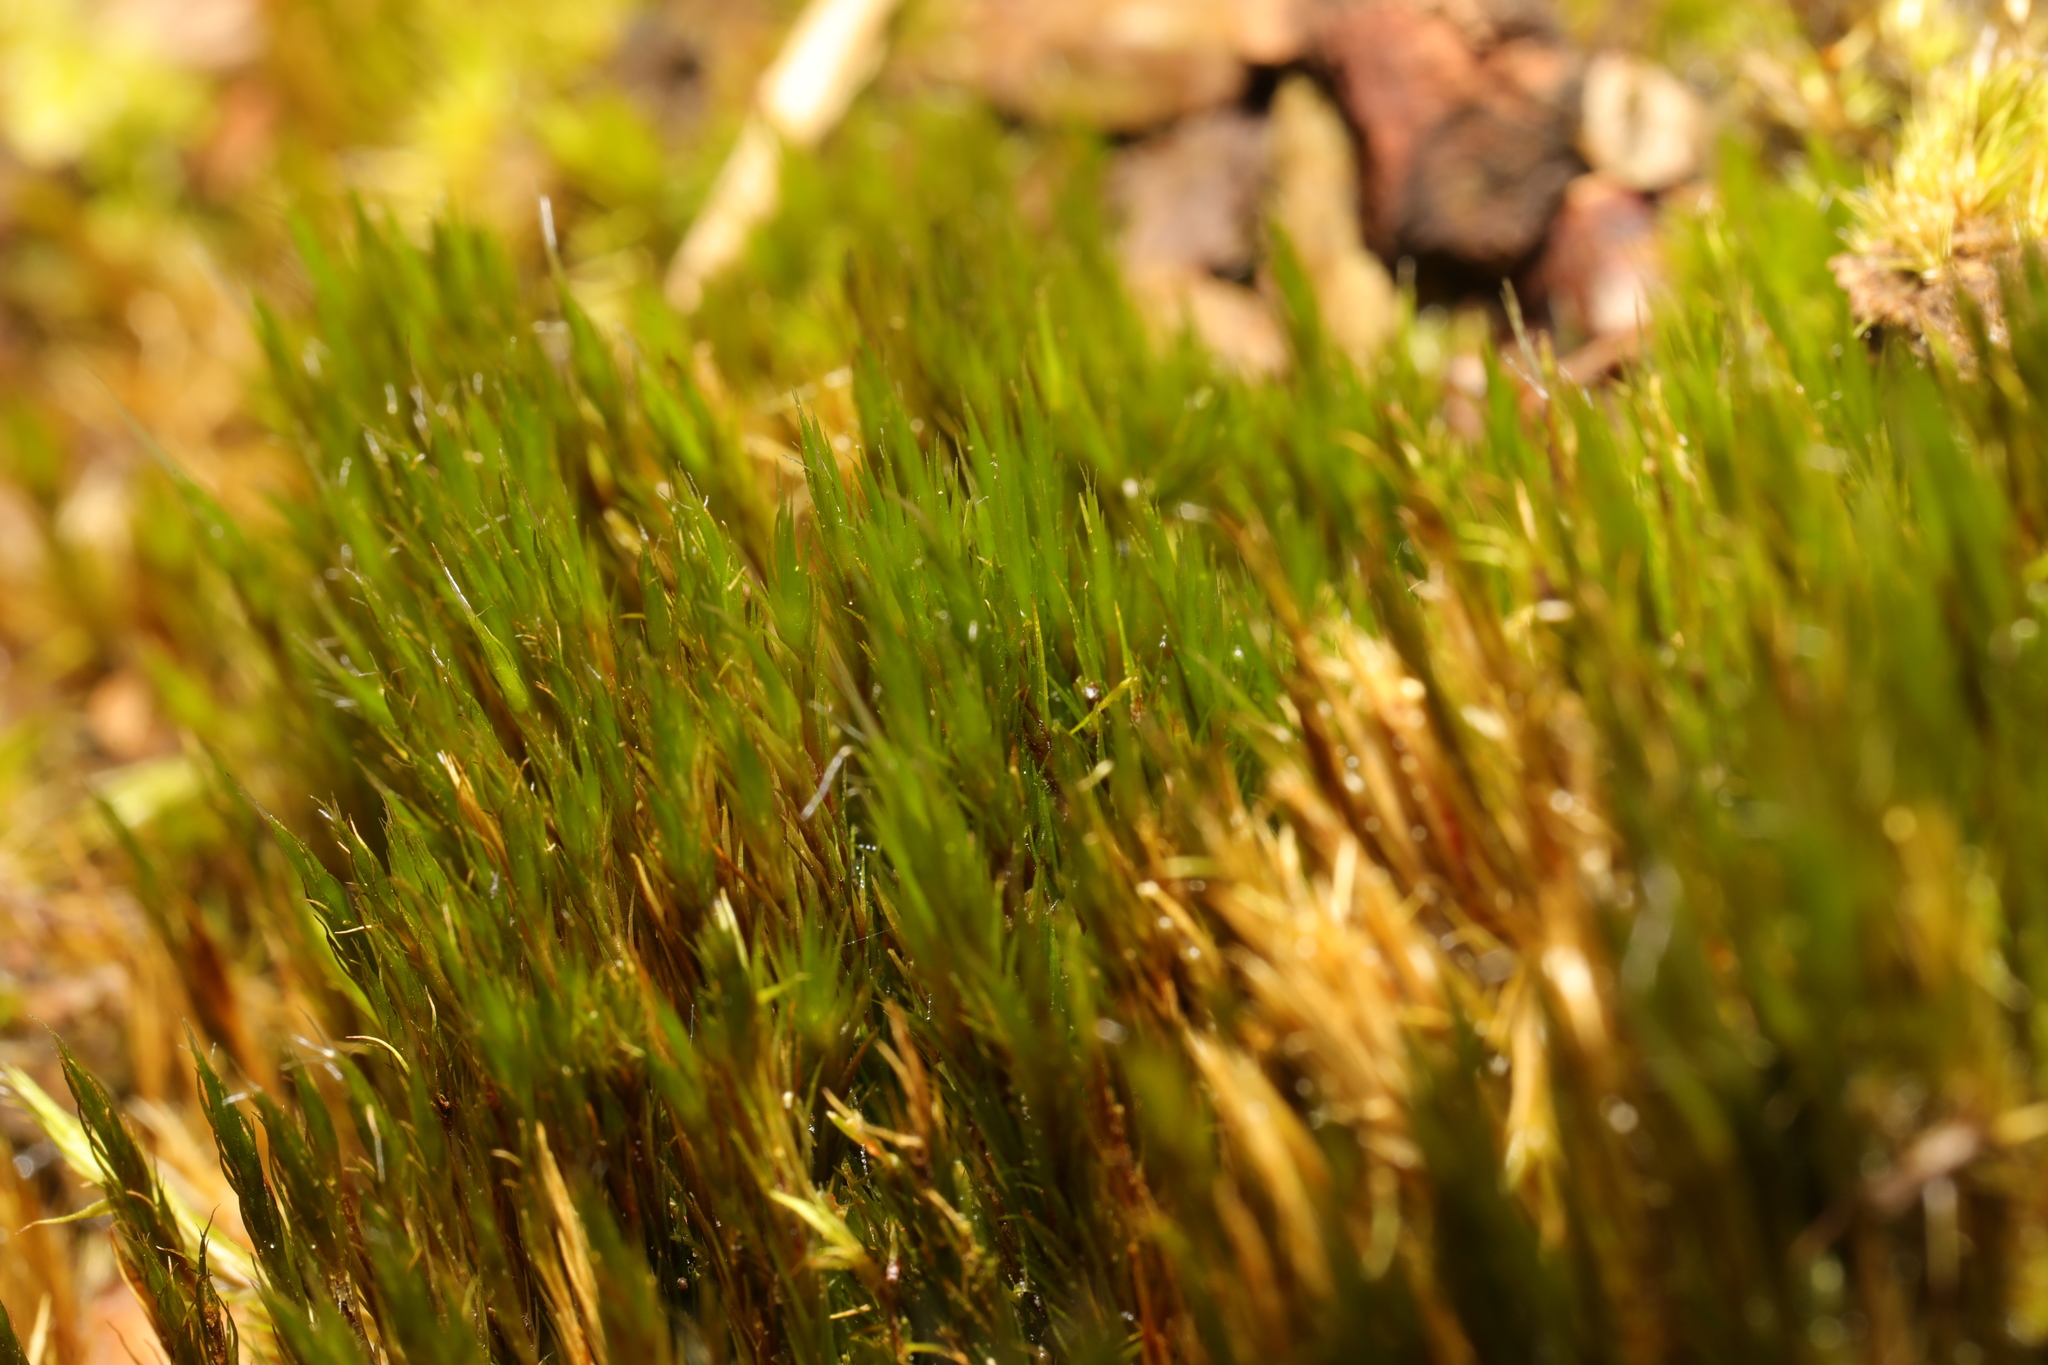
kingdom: Plantae
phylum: Bryophyta
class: Bryopsida
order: Dicranales
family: Leucobryaceae
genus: Campylopus
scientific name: Campylopus introflexus
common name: Heath star moss
